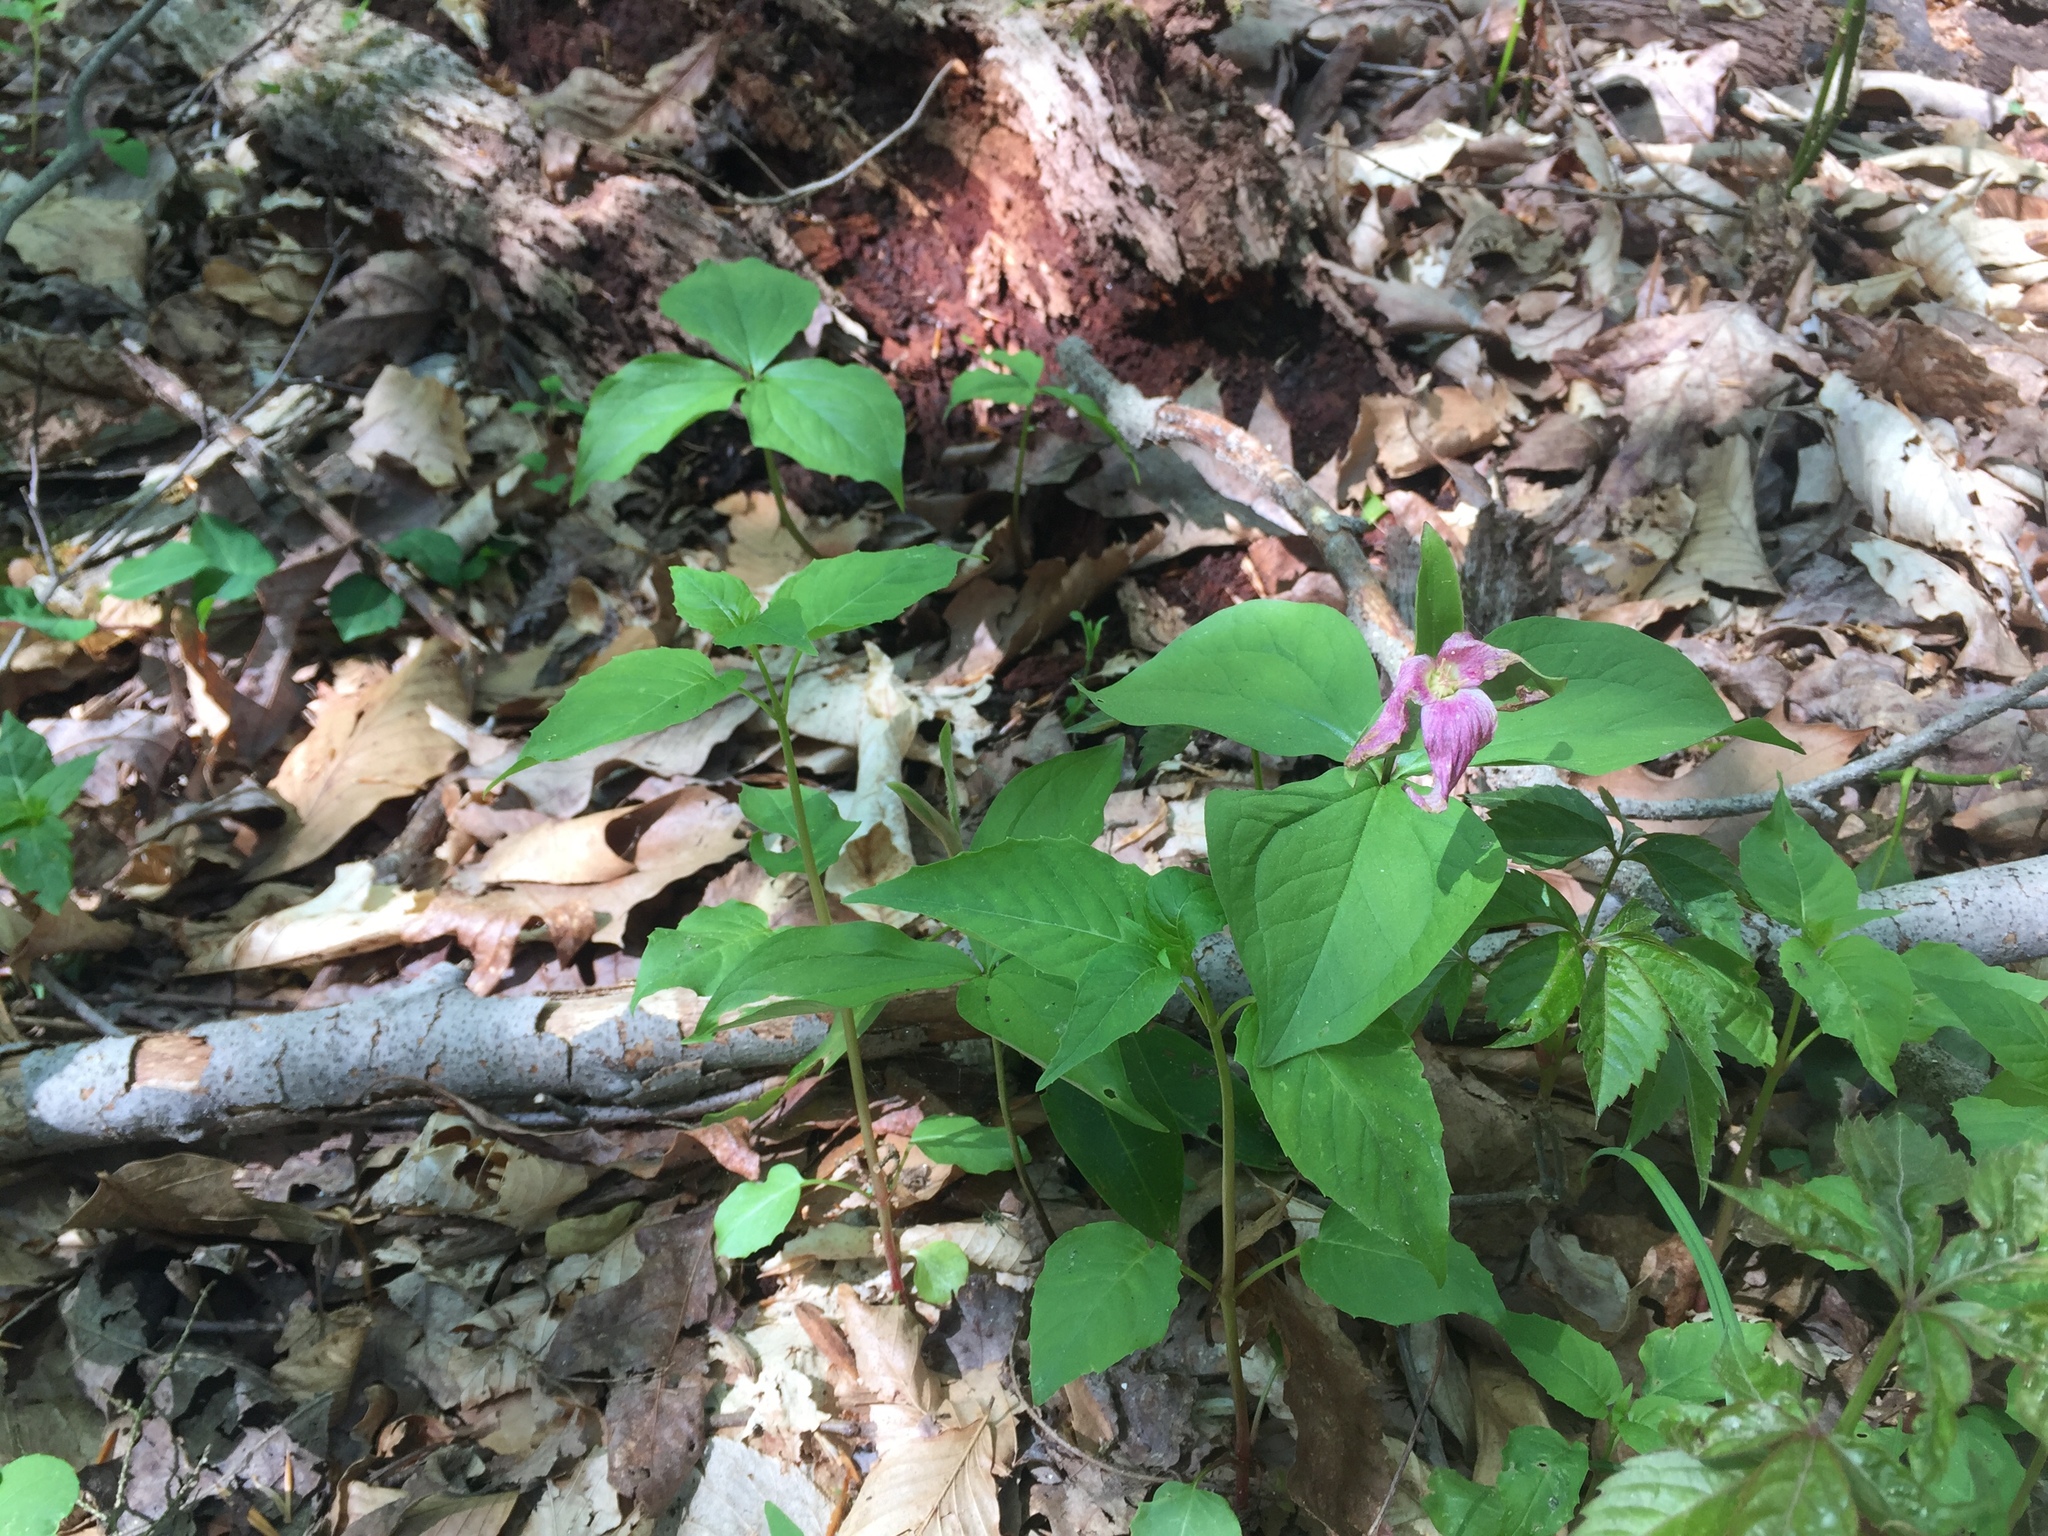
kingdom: Plantae
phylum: Tracheophyta
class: Liliopsida
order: Liliales
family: Melanthiaceae
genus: Trillium
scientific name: Trillium grandiflorum
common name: Great white trillium
